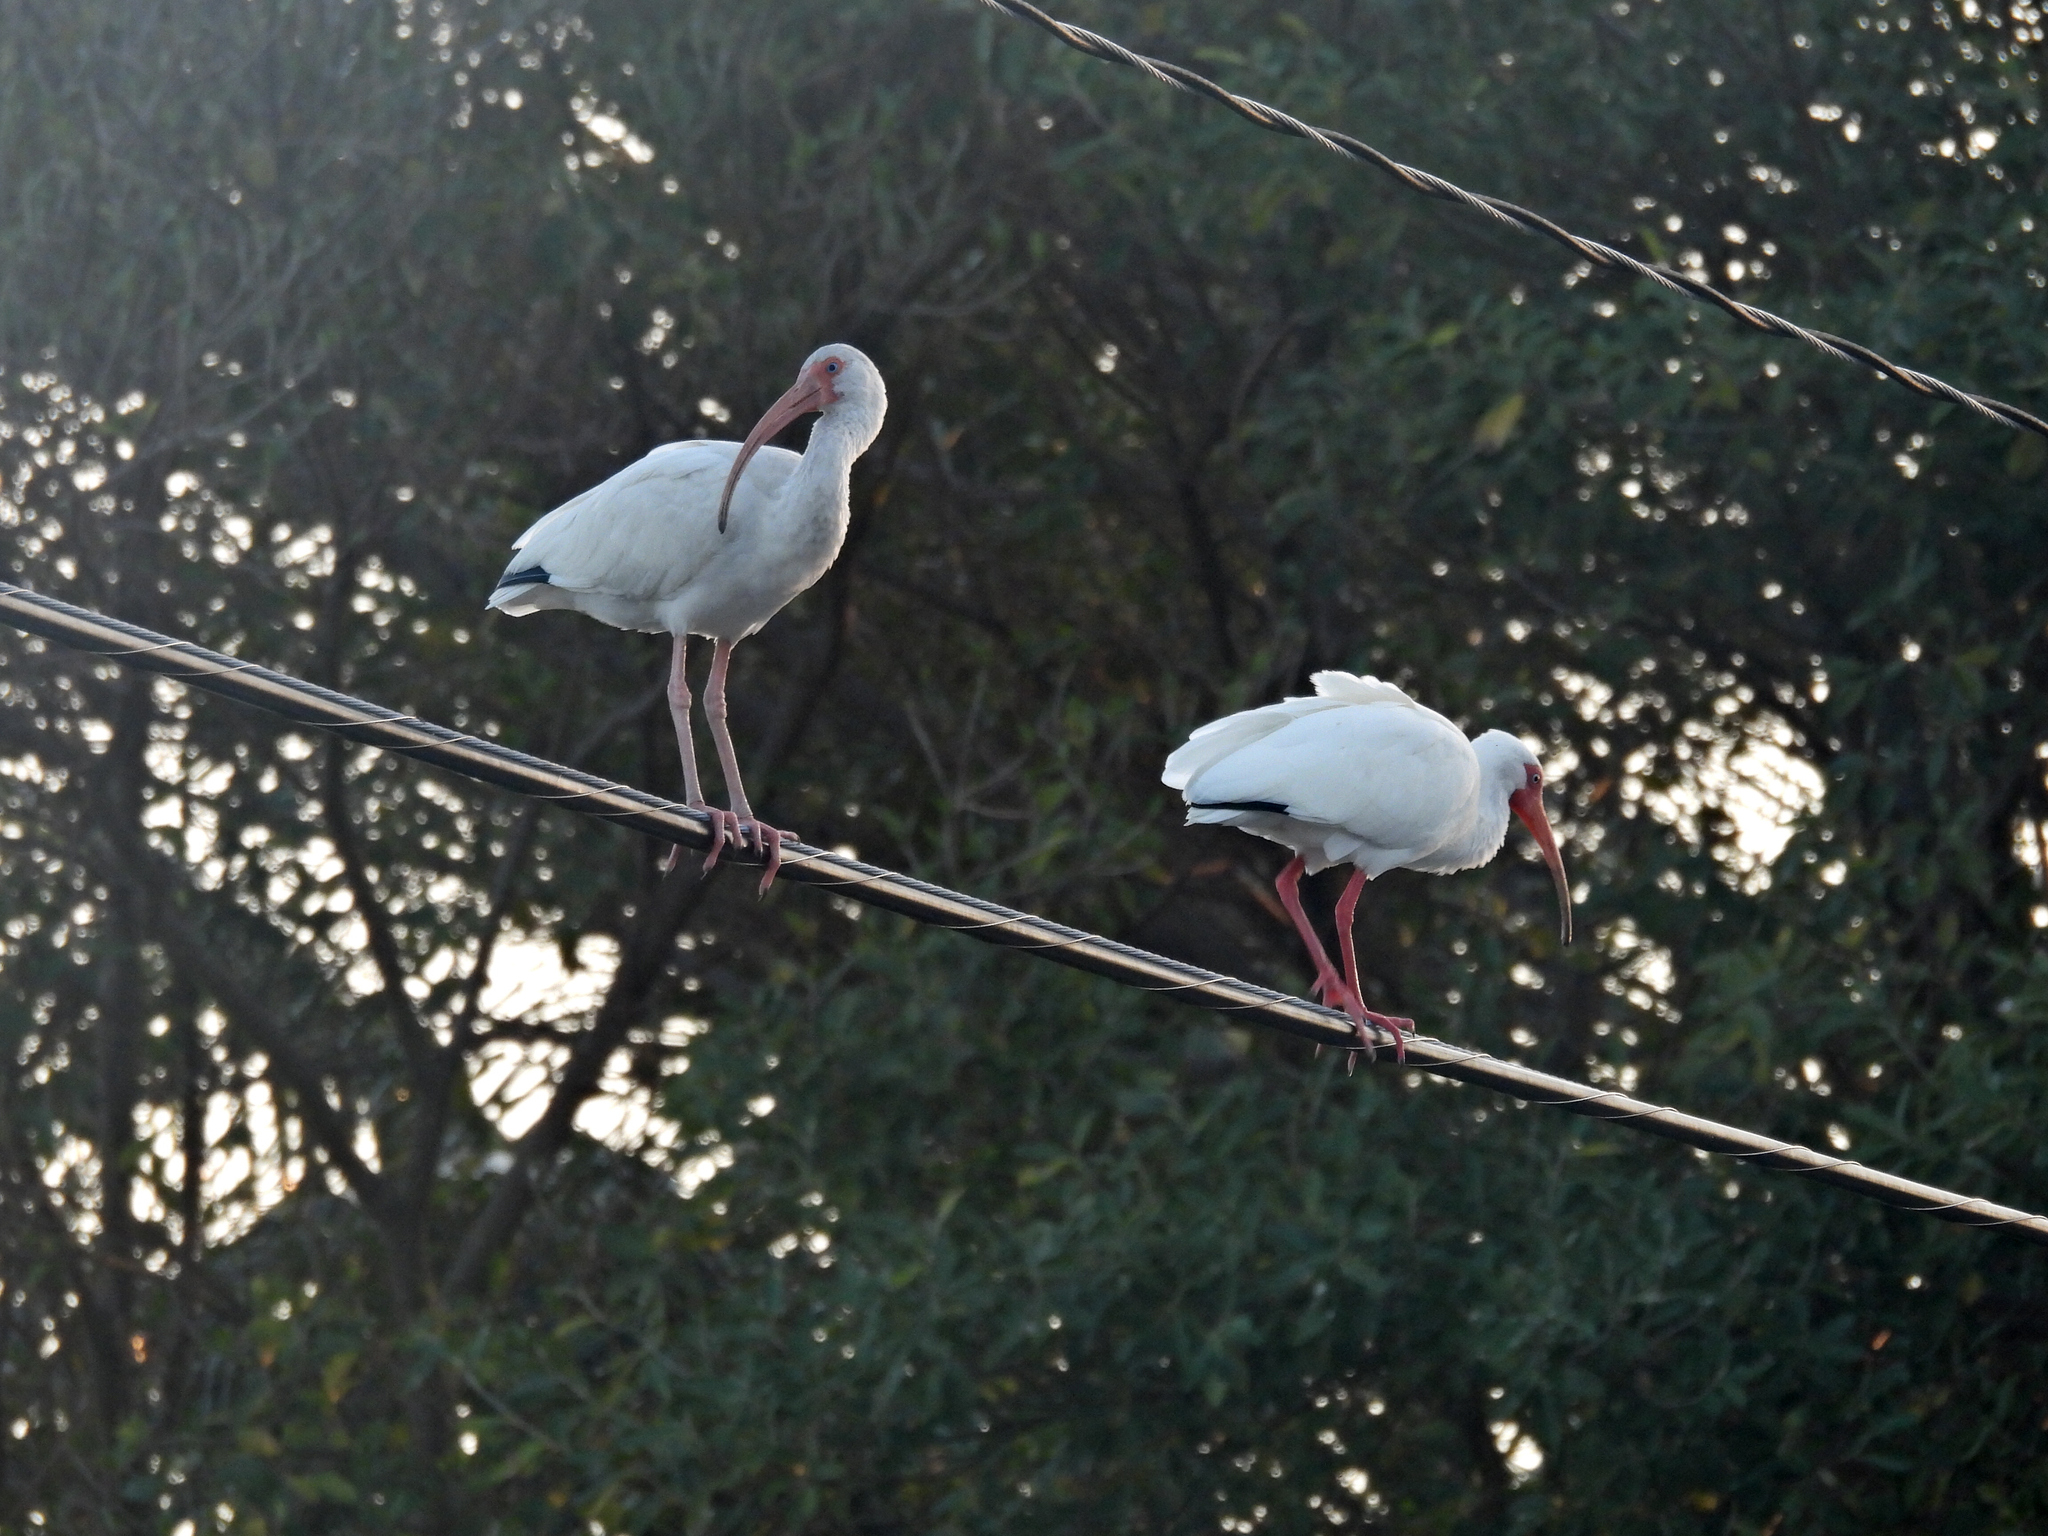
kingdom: Animalia
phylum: Chordata
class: Aves
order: Pelecaniformes
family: Threskiornithidae
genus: Eudocimus
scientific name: Eudocimus albus
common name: White ibis
